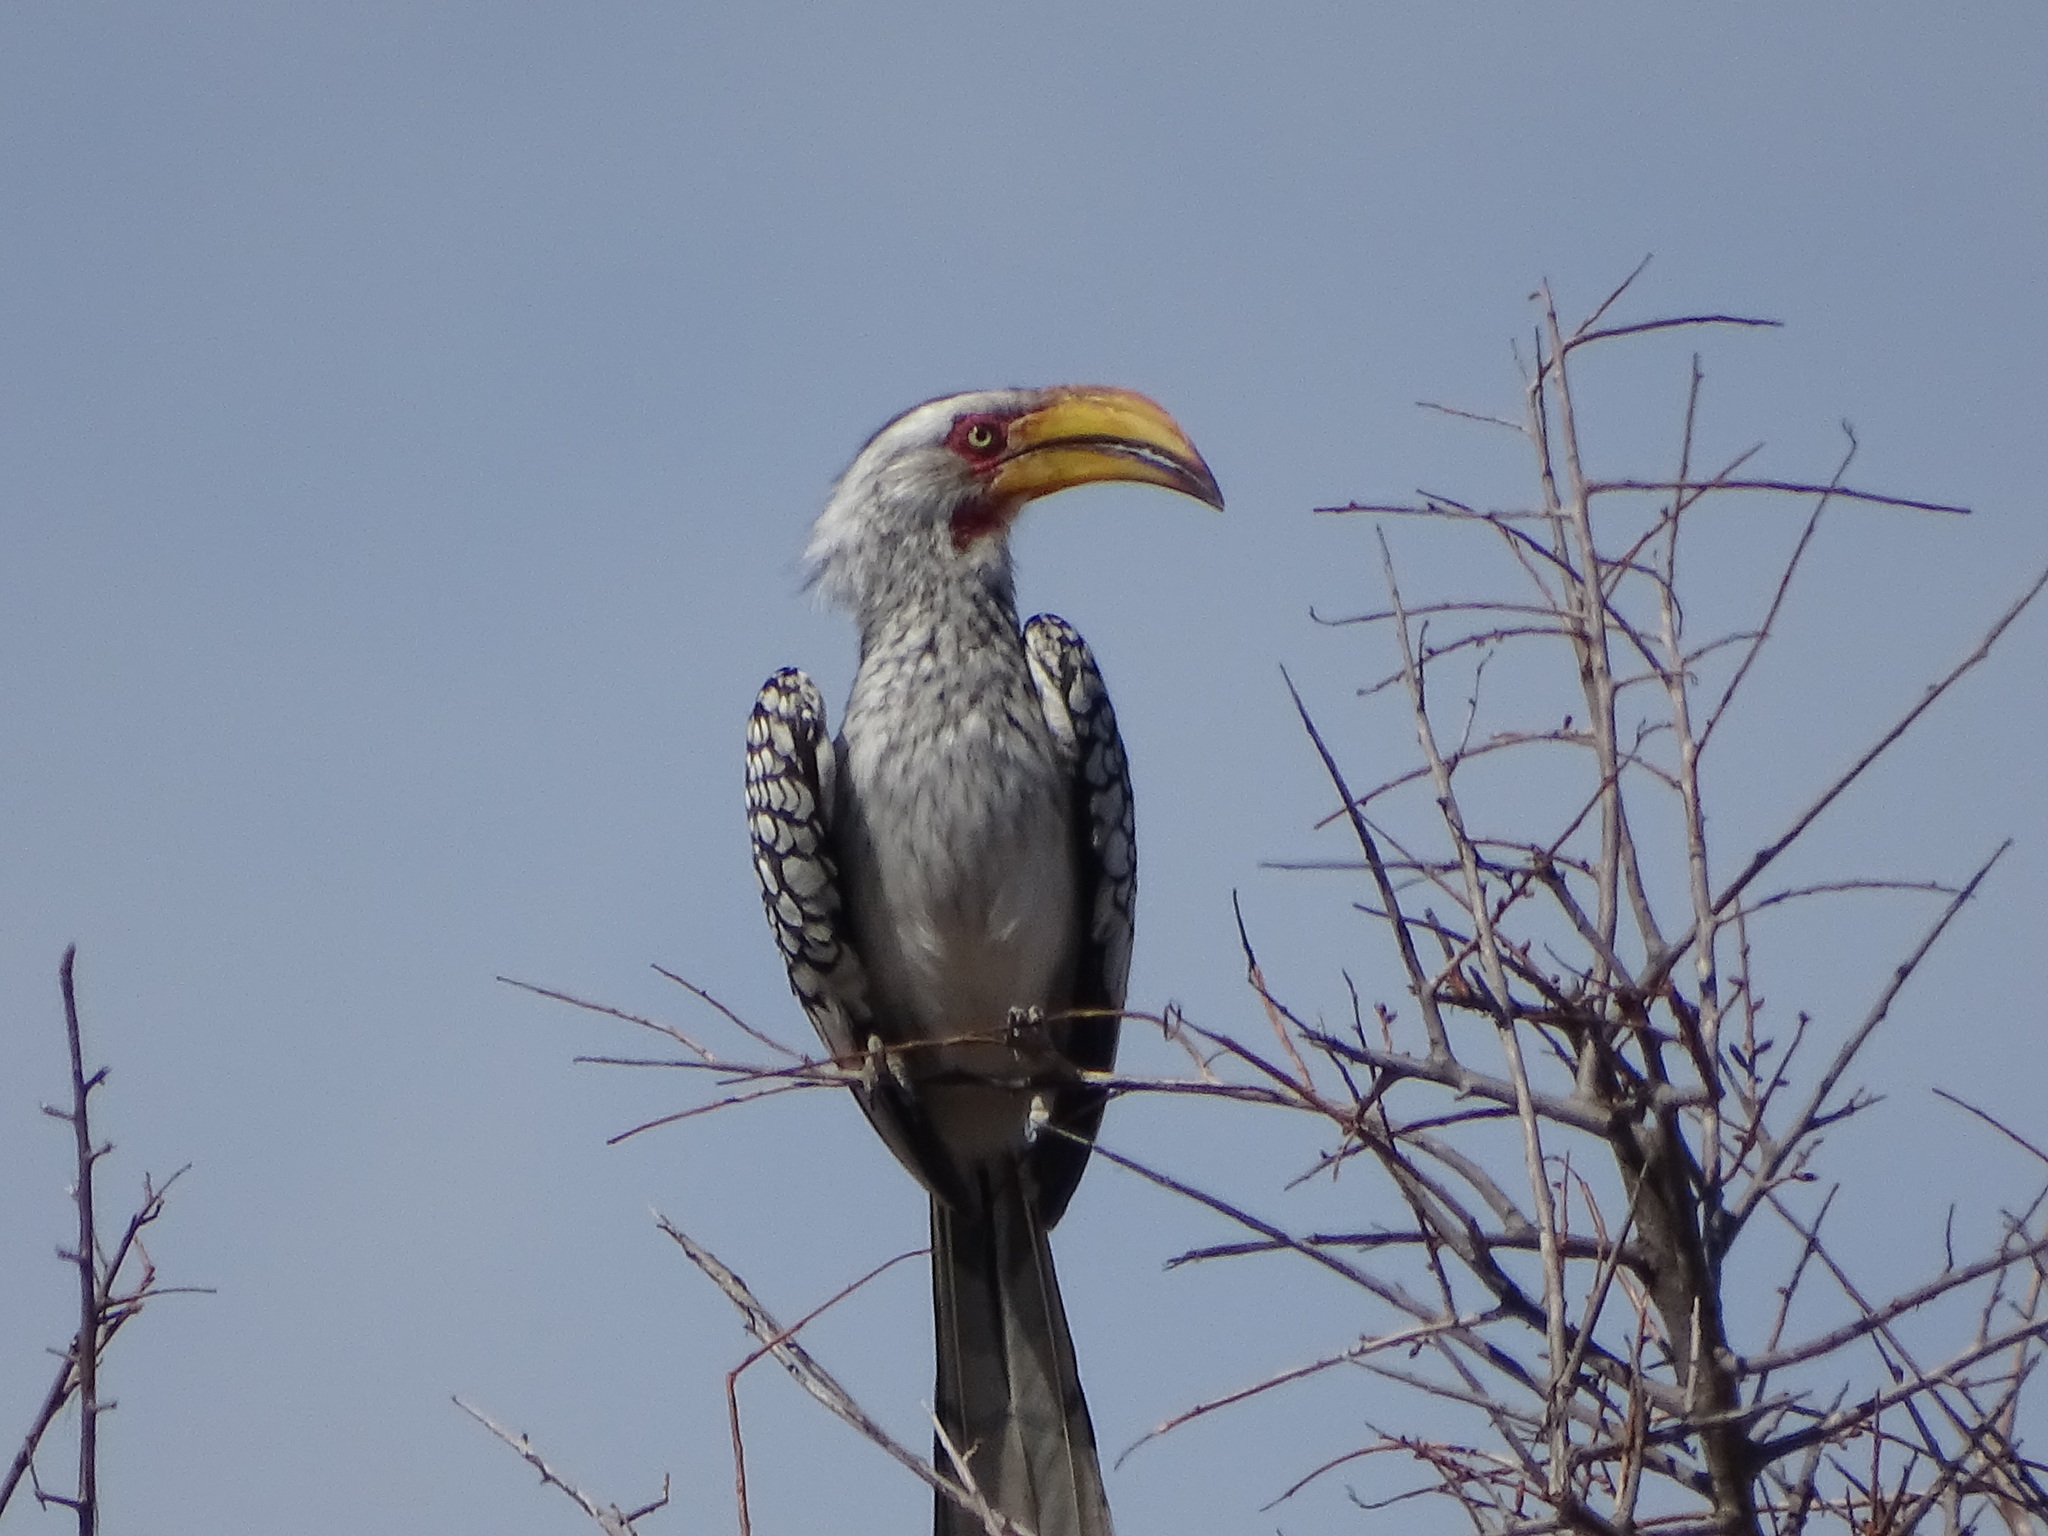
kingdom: Animalia
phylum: Chordata
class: Aves
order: Bucerotiformes
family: Bucerotidae
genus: Tockus
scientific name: Tockus leucomelas
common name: Southern yellow-billed hornbill
